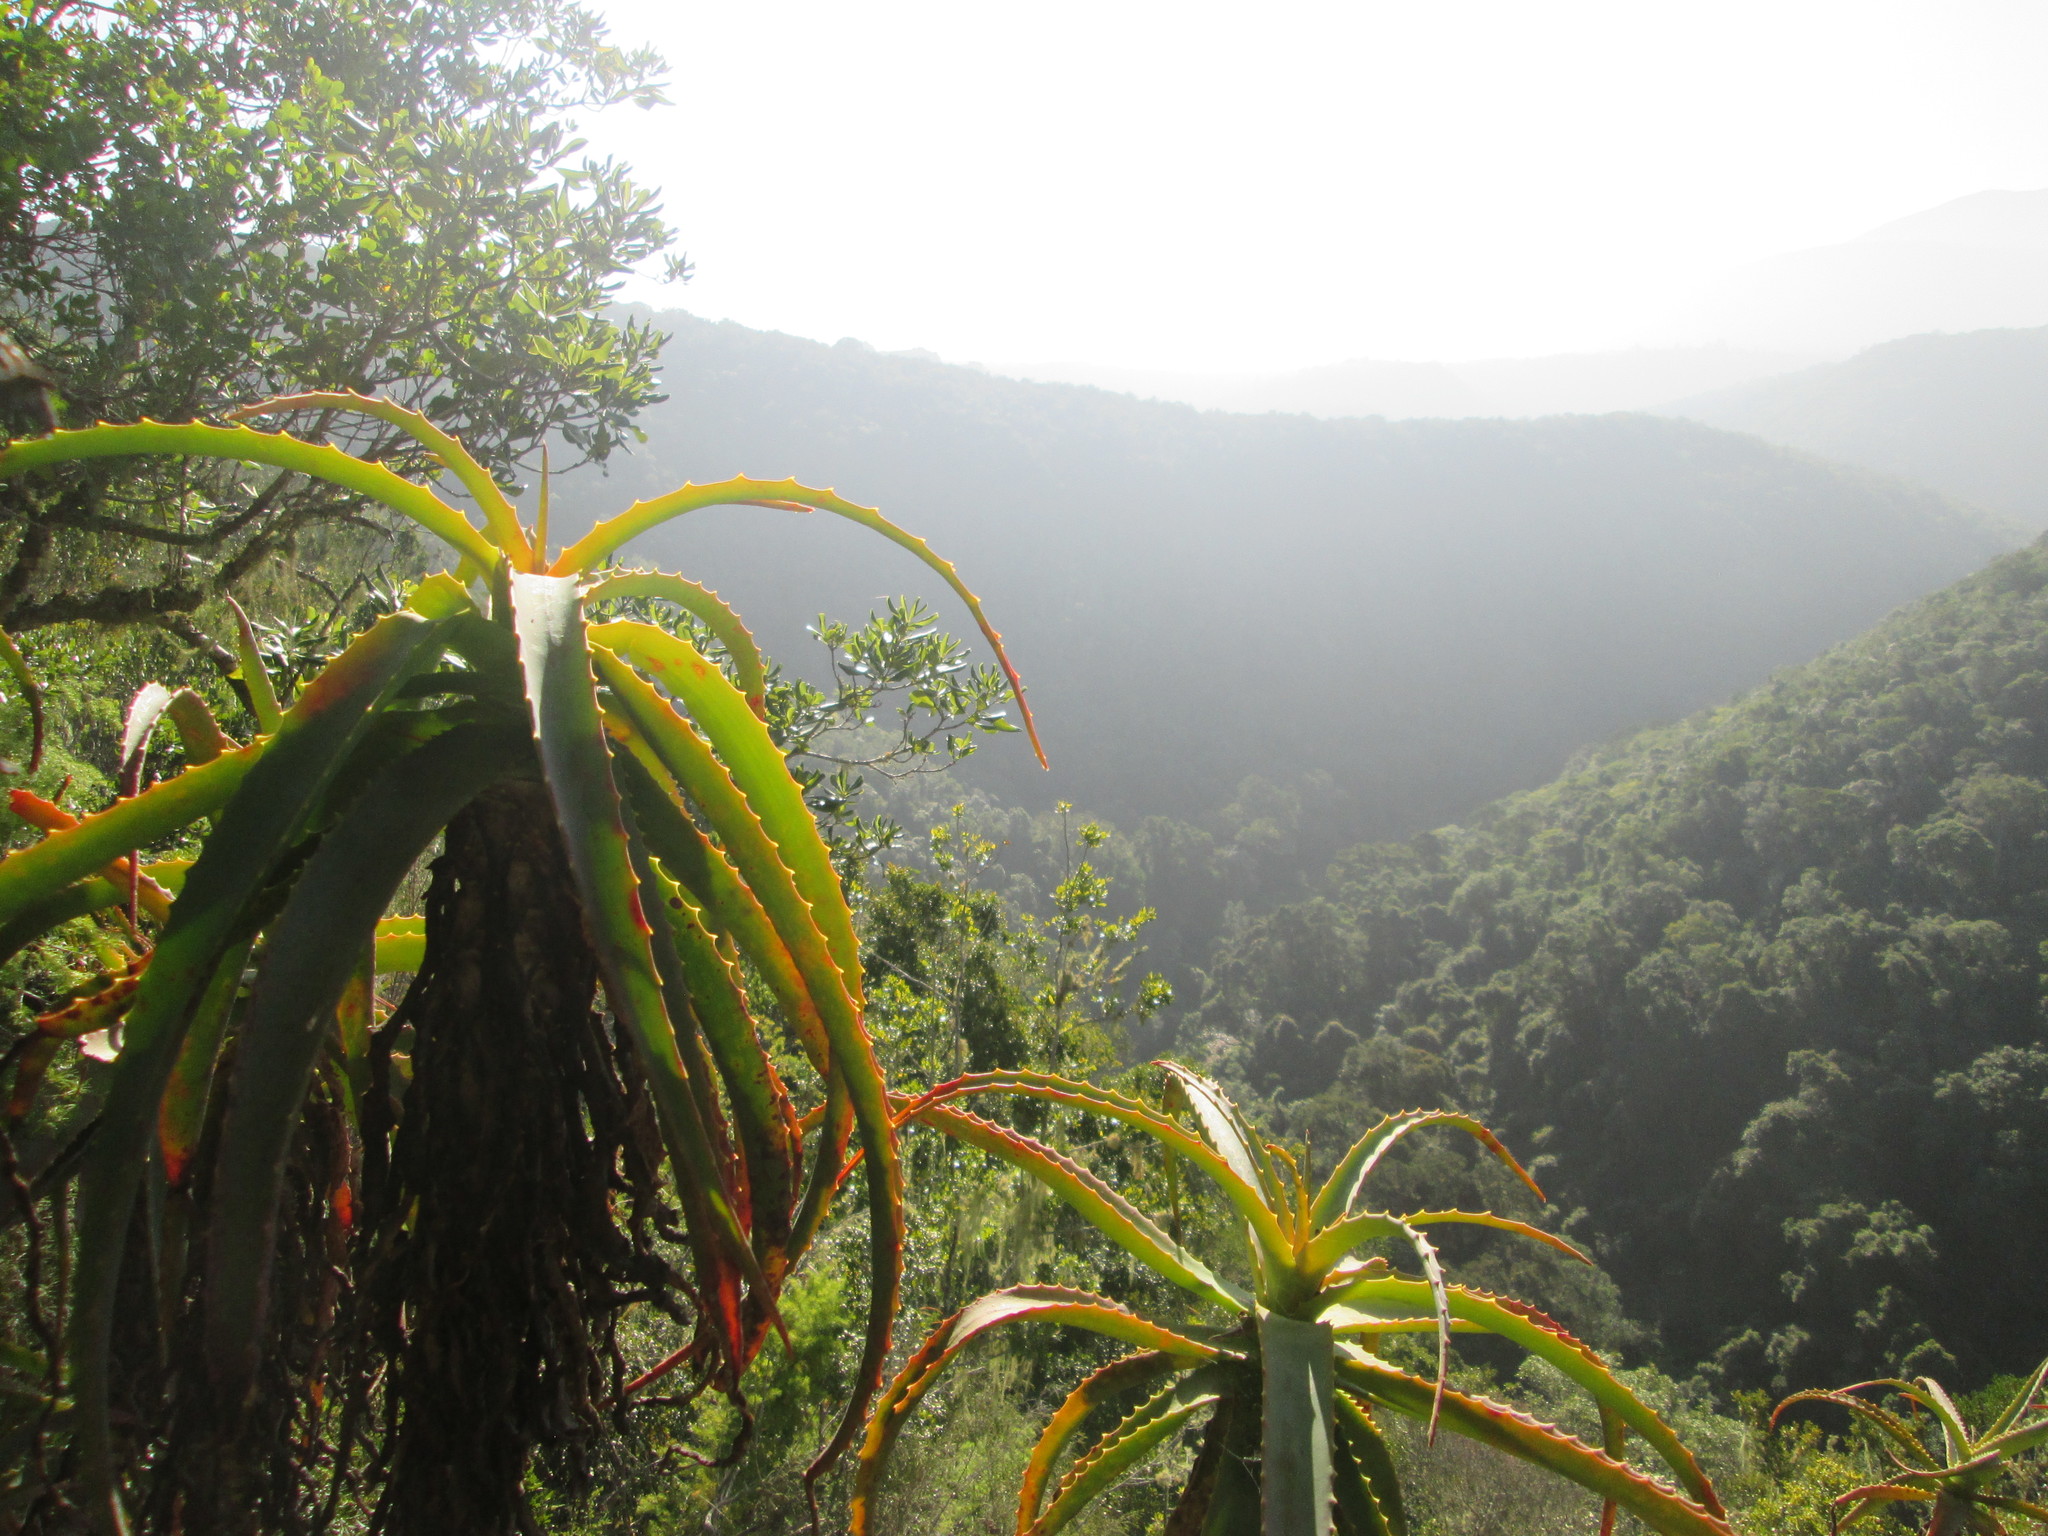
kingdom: Plantae
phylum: Tracheophyta
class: Liliopsida
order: Asparagales
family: Asphodelaceae
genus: Aloe
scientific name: Aloe arborescens
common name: Candelabra aloe
